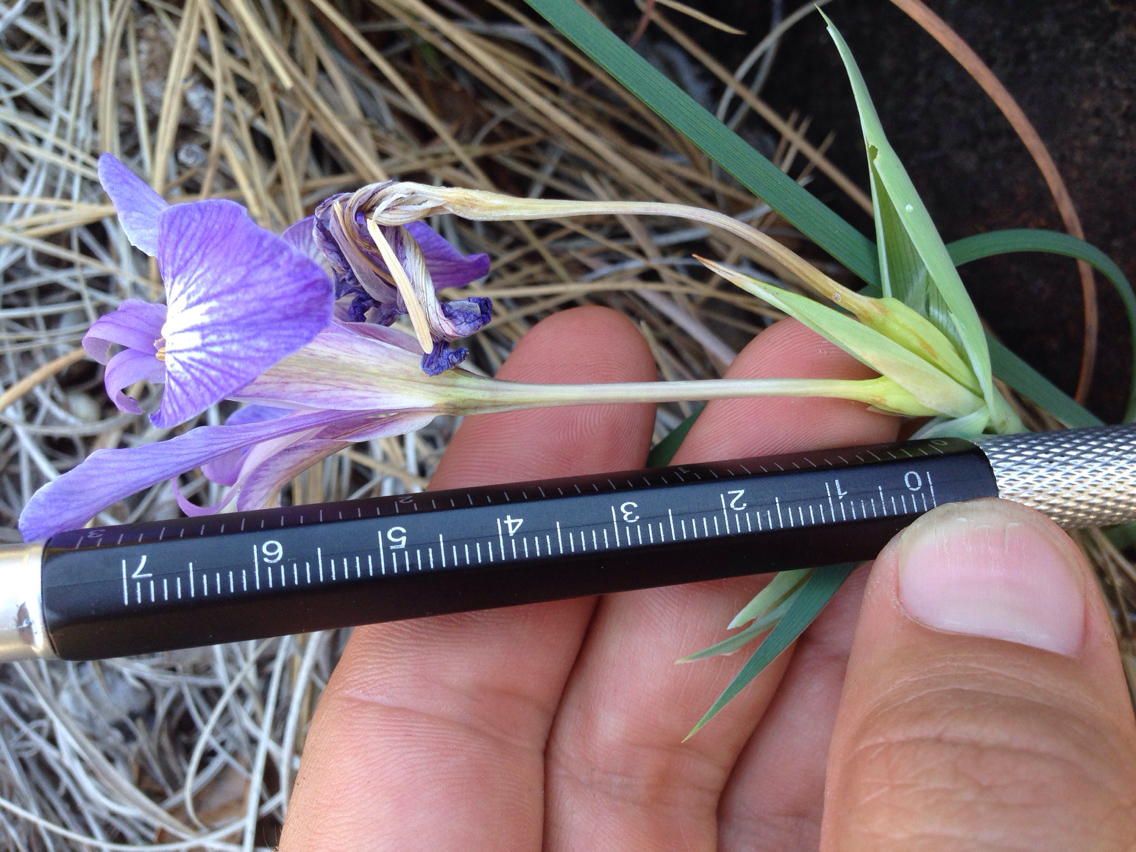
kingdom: Plantae
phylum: Tracheophyta
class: Liliopsida
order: Asparagales
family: Iridaceae
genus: Iris
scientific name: Iris macrosiphon
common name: Ground iris
